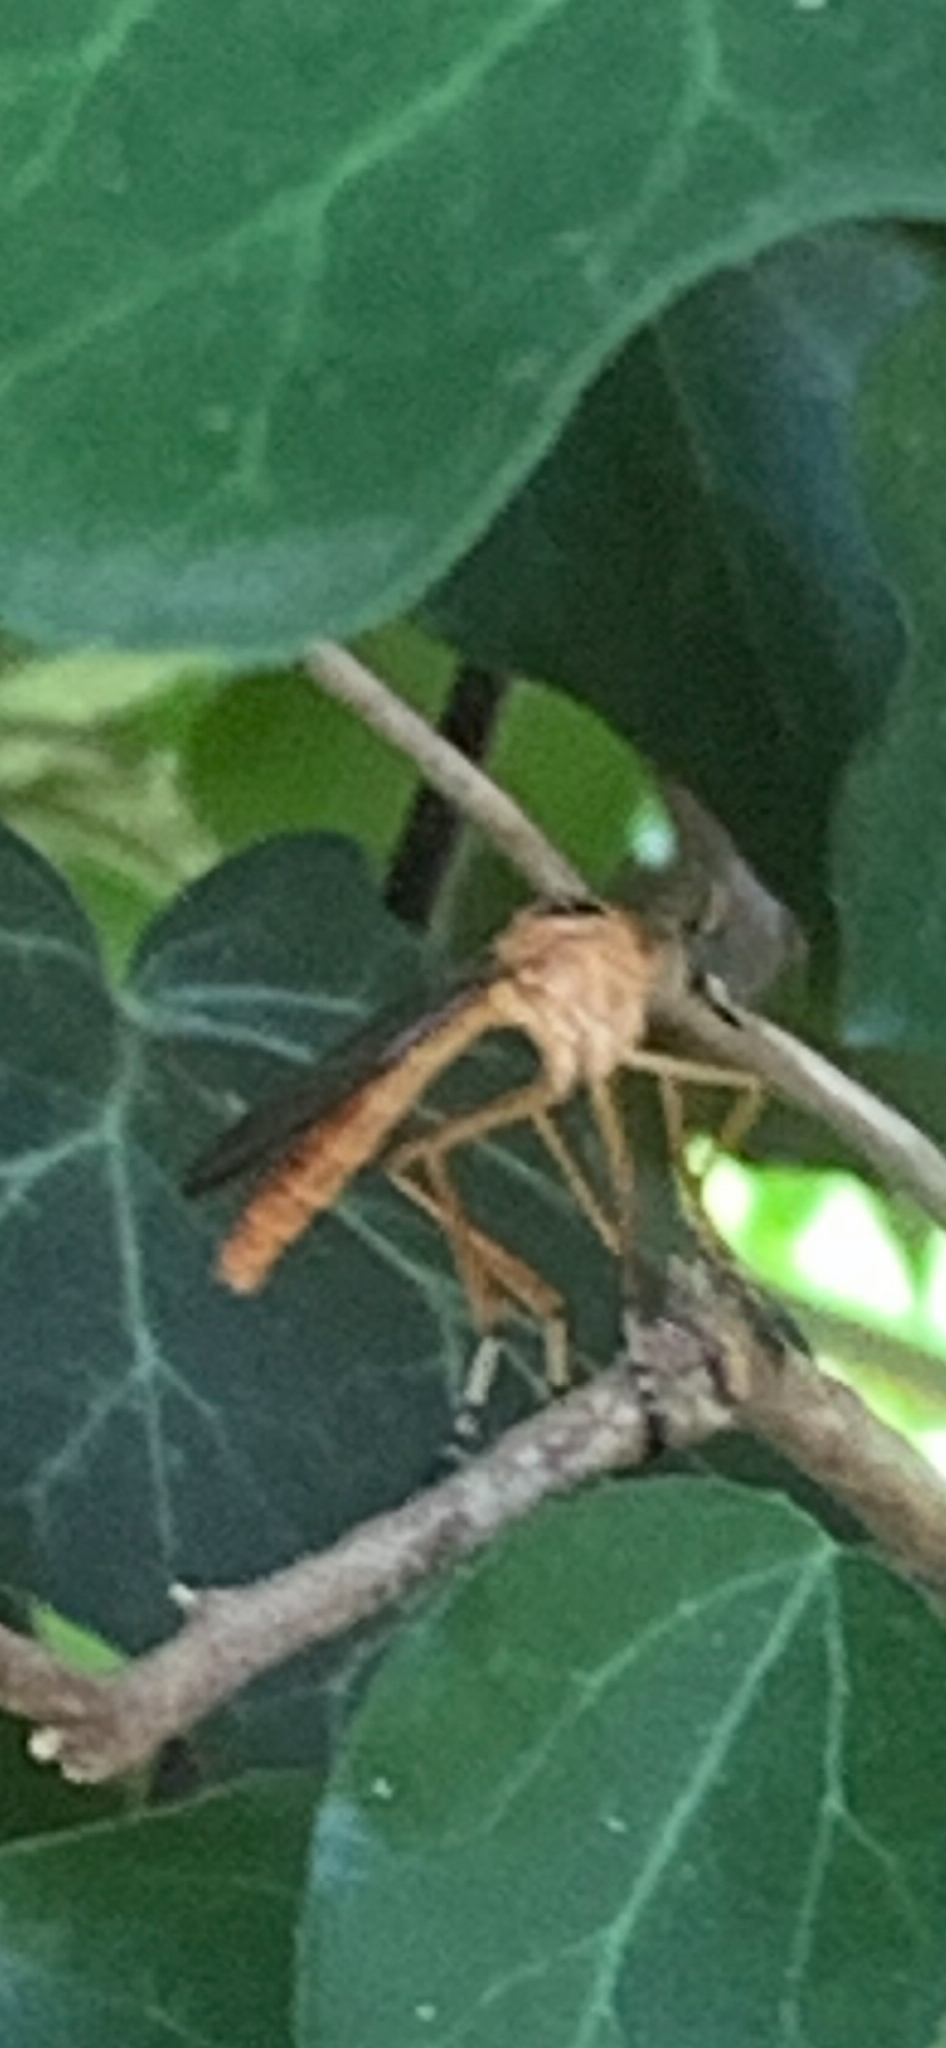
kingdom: Animalia
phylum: Arthropoda
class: Insecta
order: Diptera
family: Asilidae
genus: Diogmites
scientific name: Diogmites
